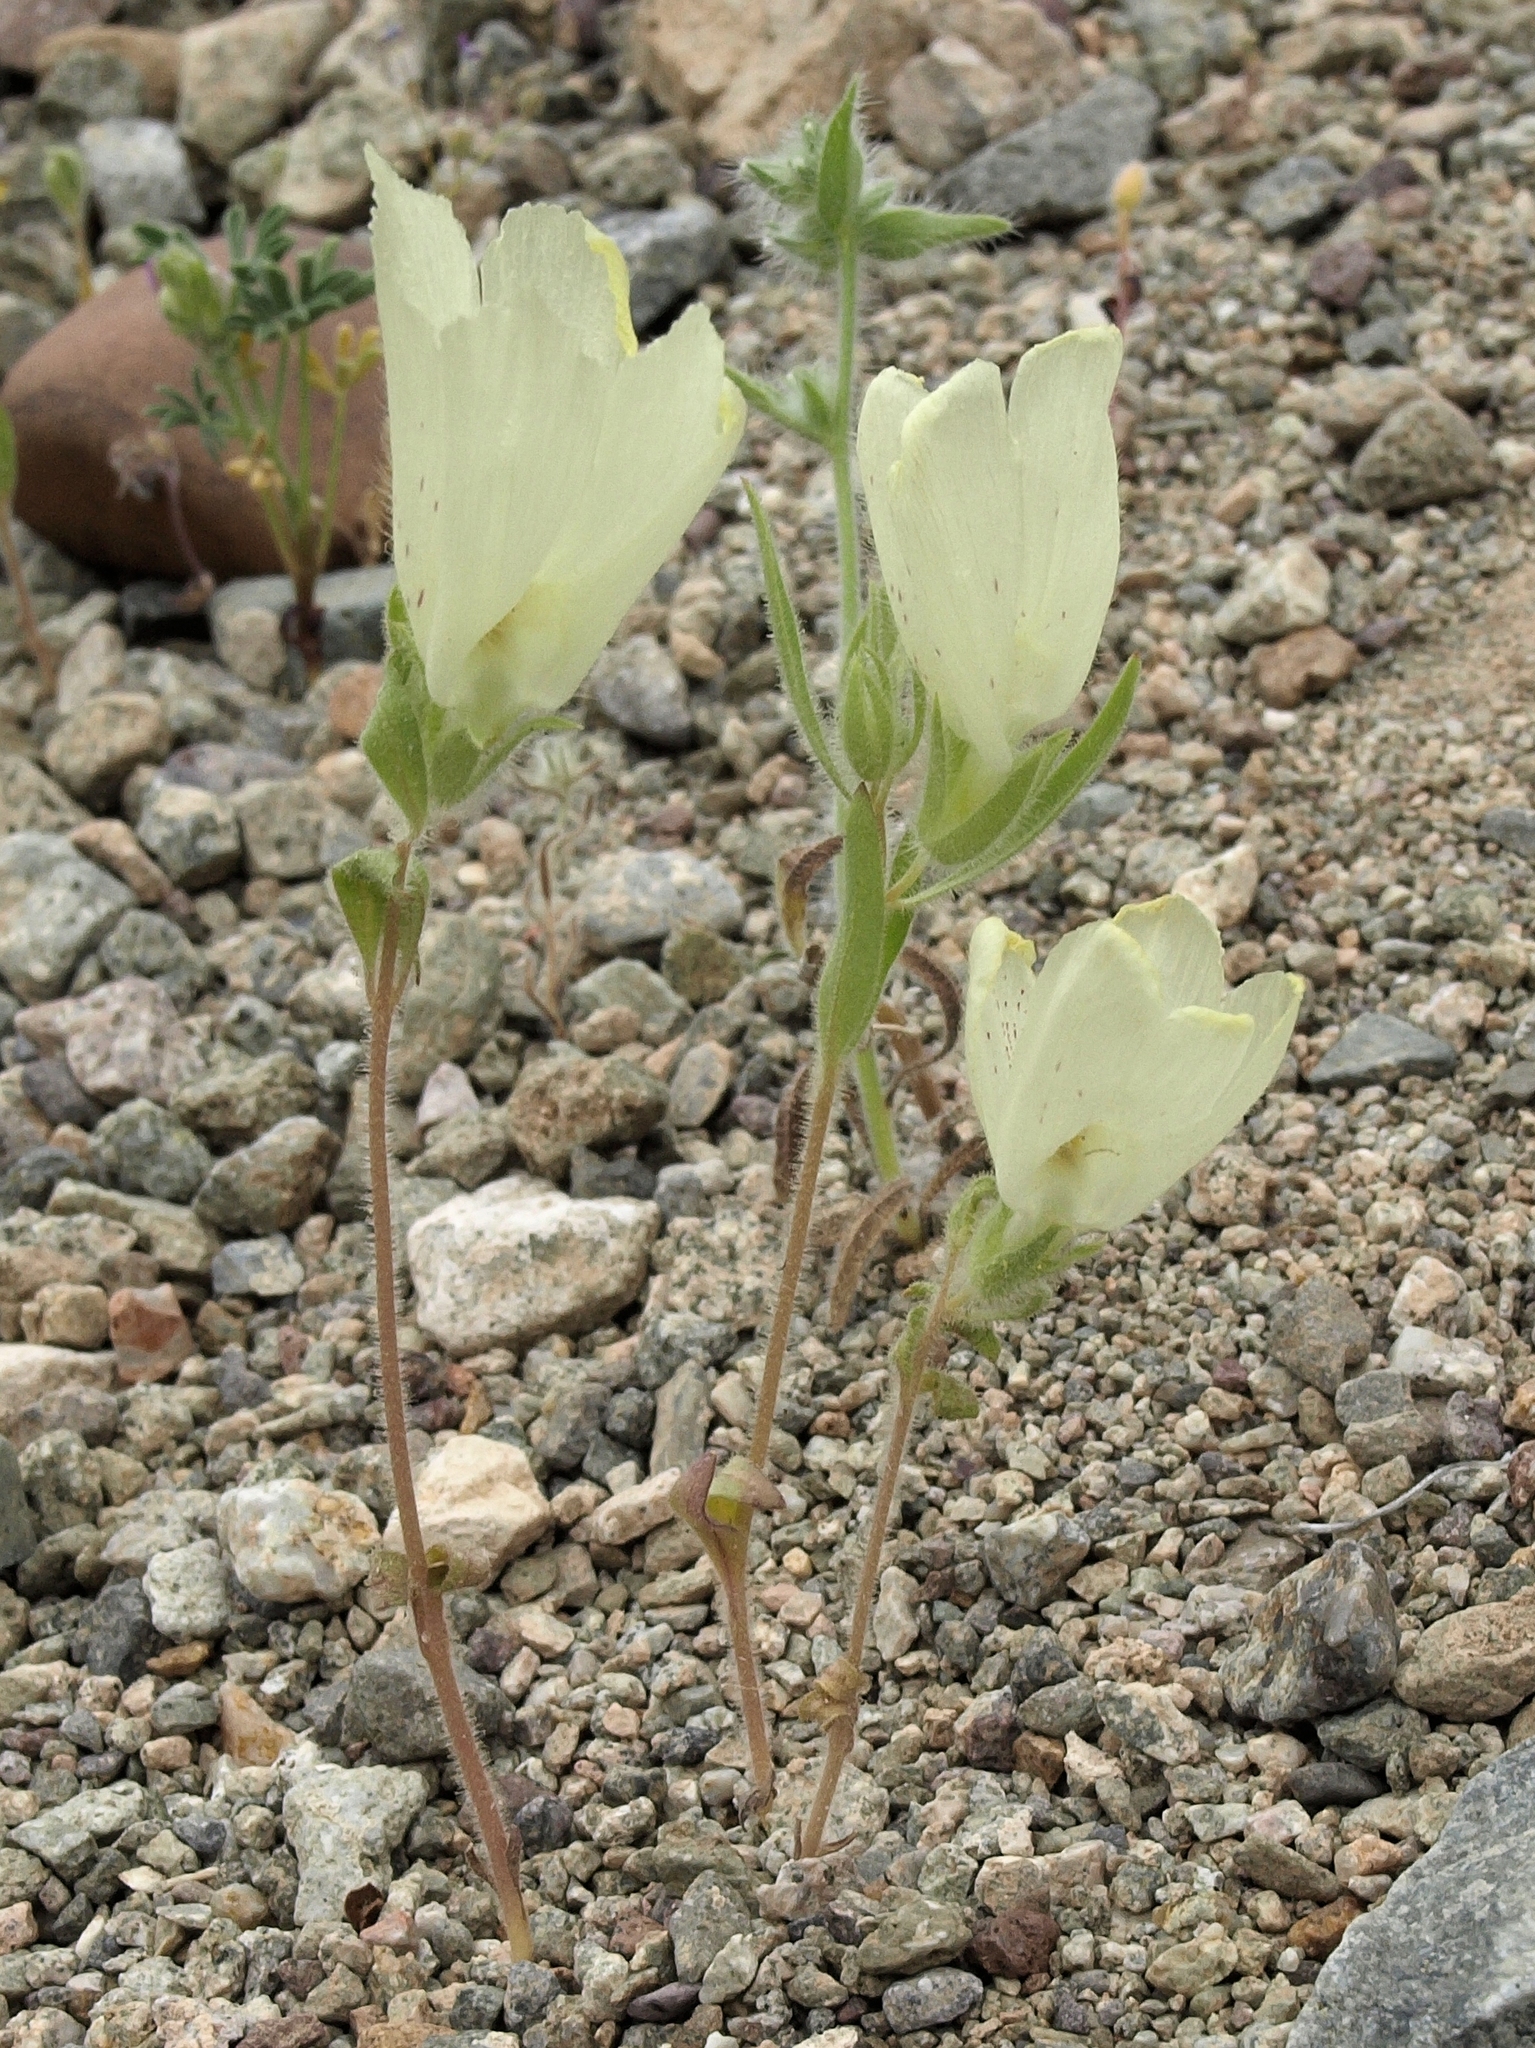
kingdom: Plantae
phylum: Tracheophyta
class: Magnoliopsida
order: Lamiales
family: Plantaginaceae
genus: Mohavea
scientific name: Mohavea confertiflora
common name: Ghost flower
